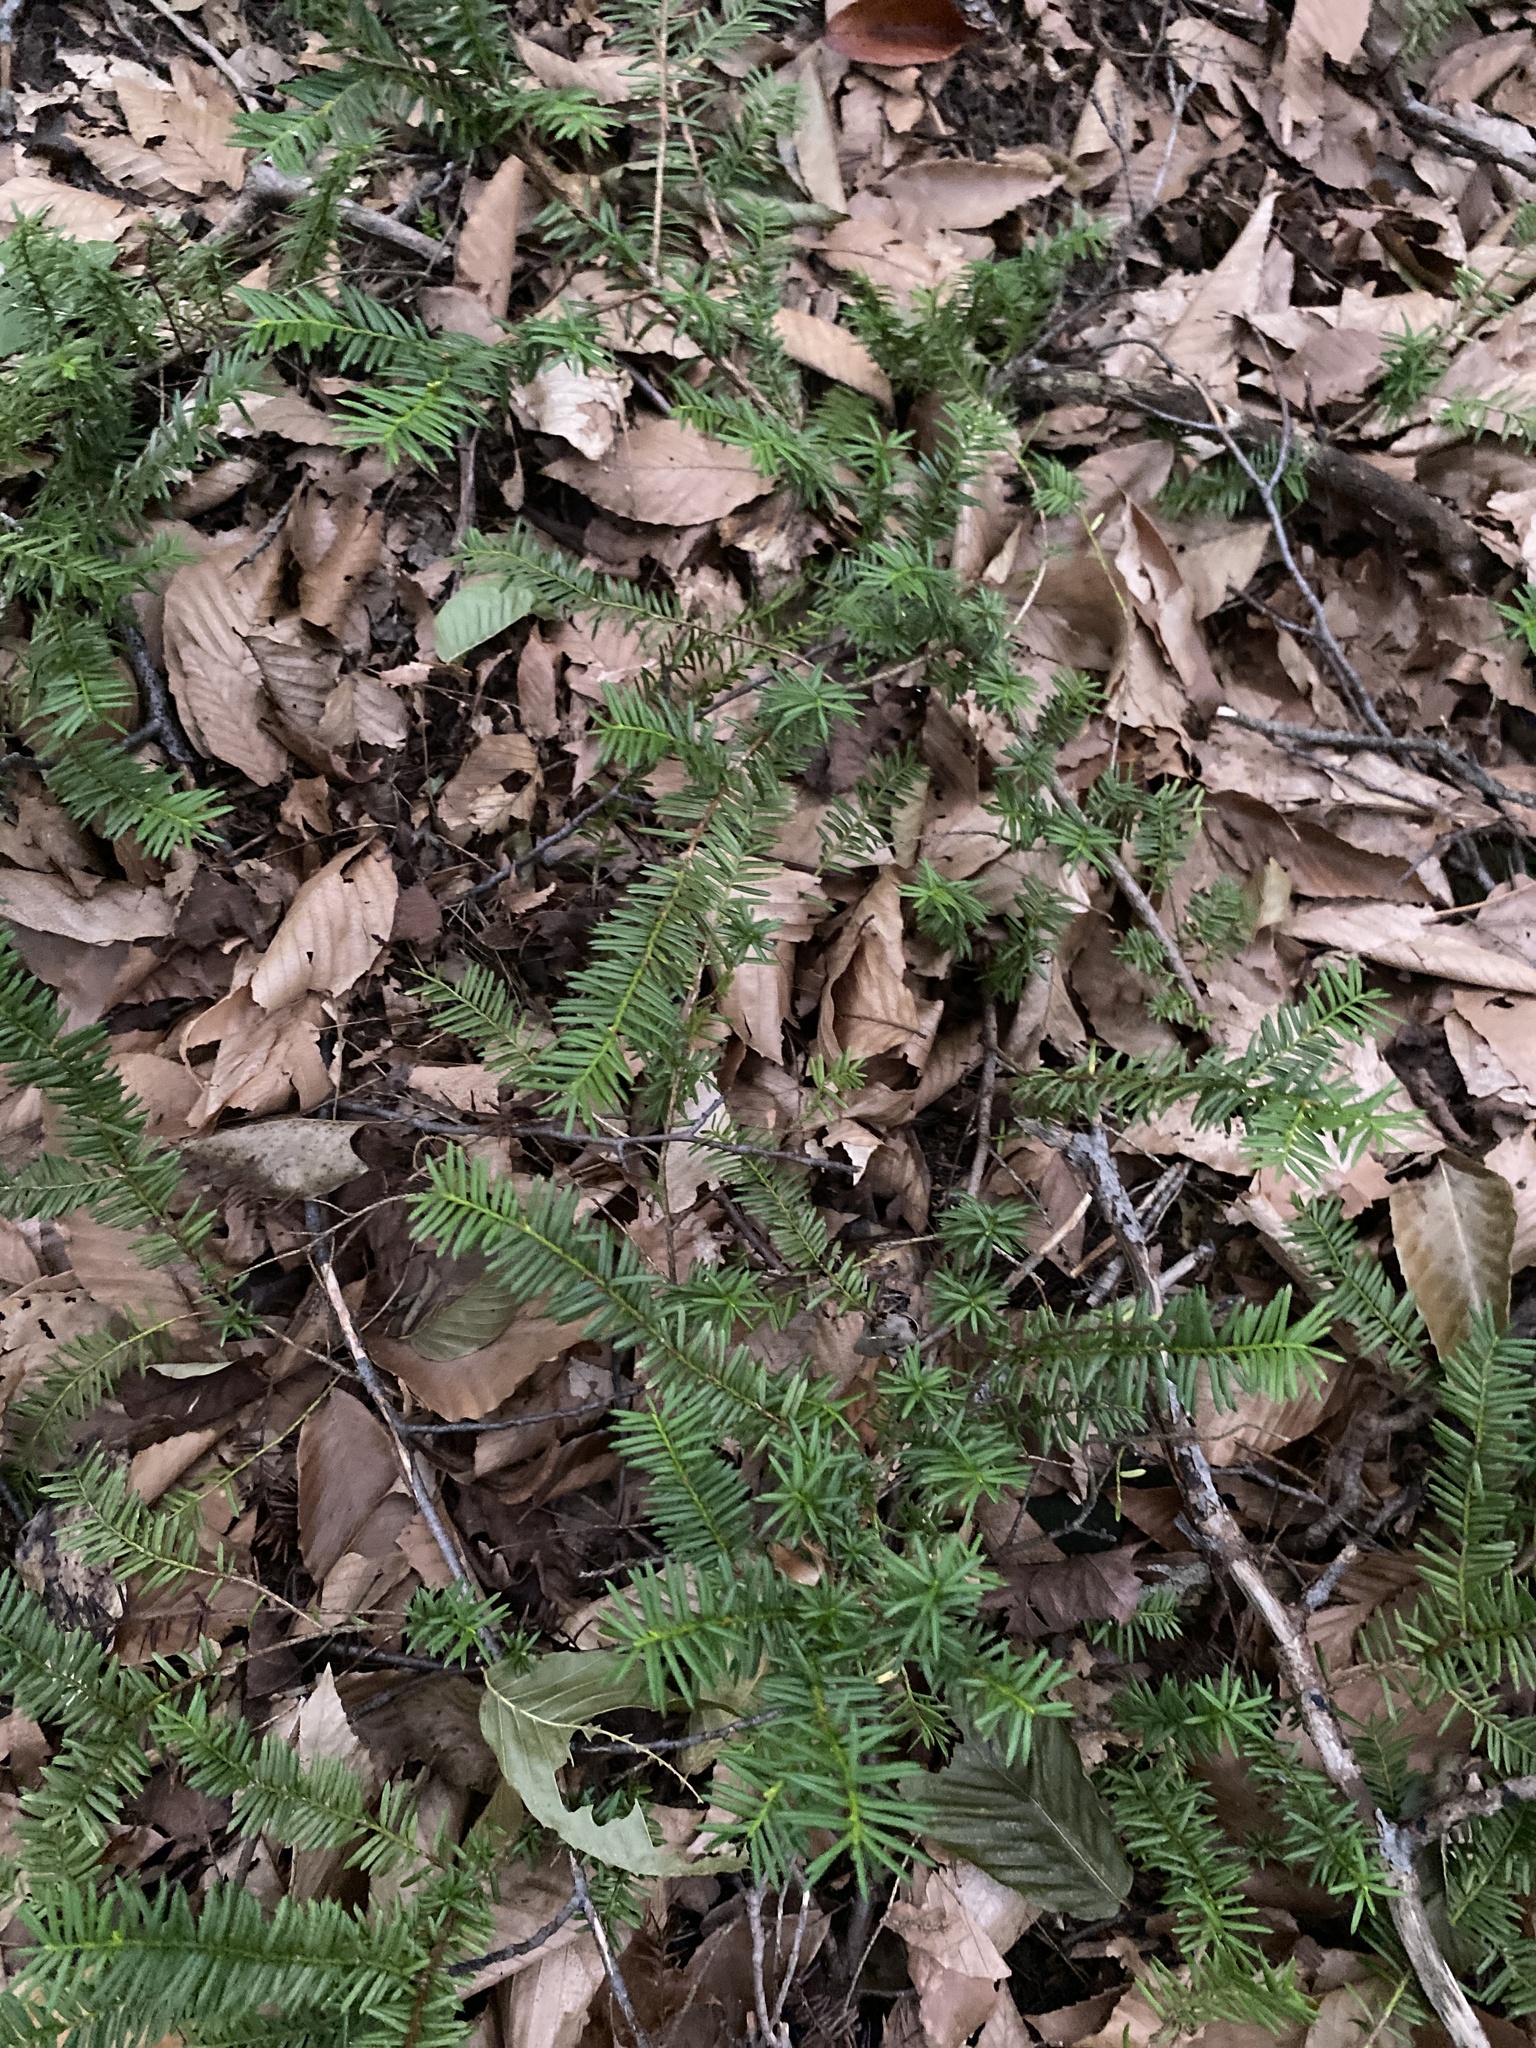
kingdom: Plantae
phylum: Tracheophyta
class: Pinopsida
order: Pinales
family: Taxaceae
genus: Taxus
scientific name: Taxus canadensis
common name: American yew
